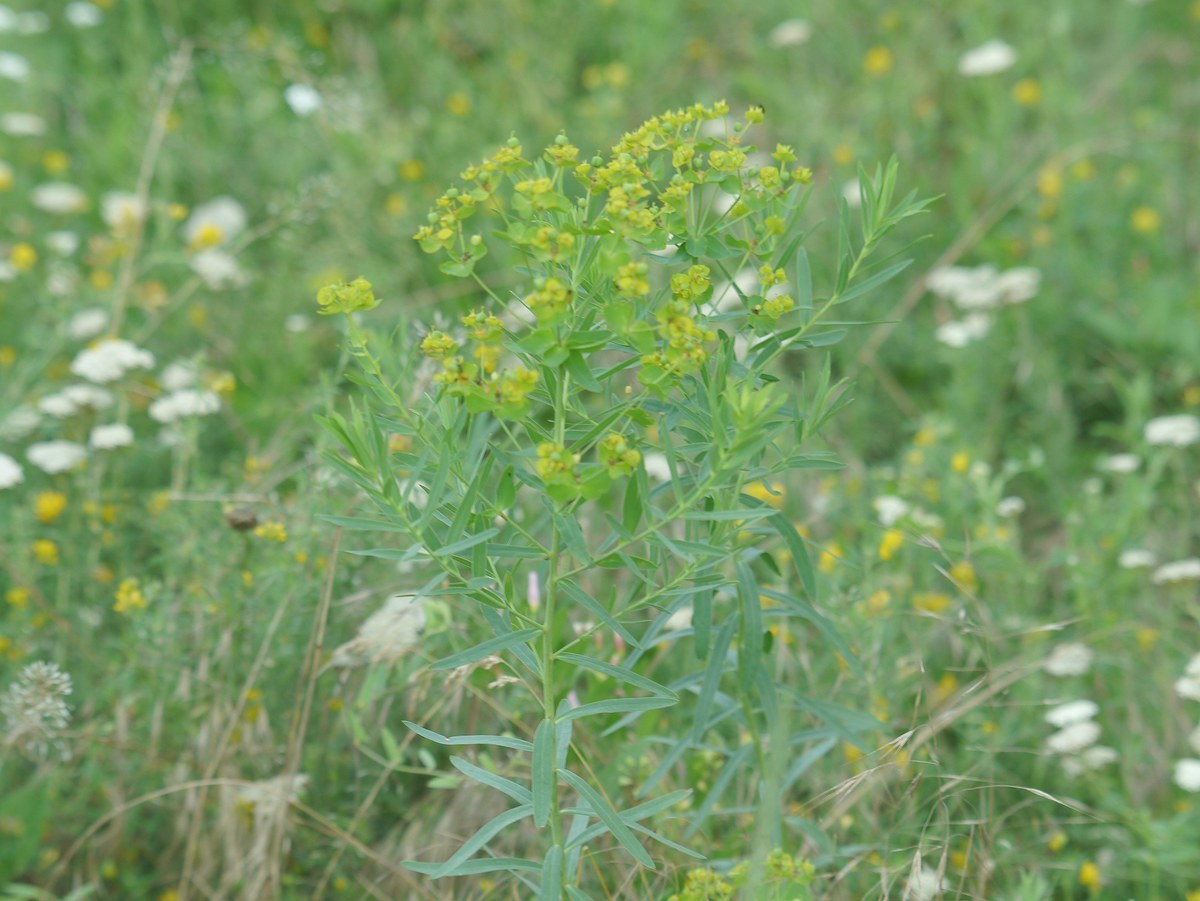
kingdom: Plantae
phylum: Tracheophyta
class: Magnoliopsida
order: Malpighiales
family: Euphorbiaceae
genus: Euphorbia
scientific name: Euphorbia virgata
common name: Leafy spurge
